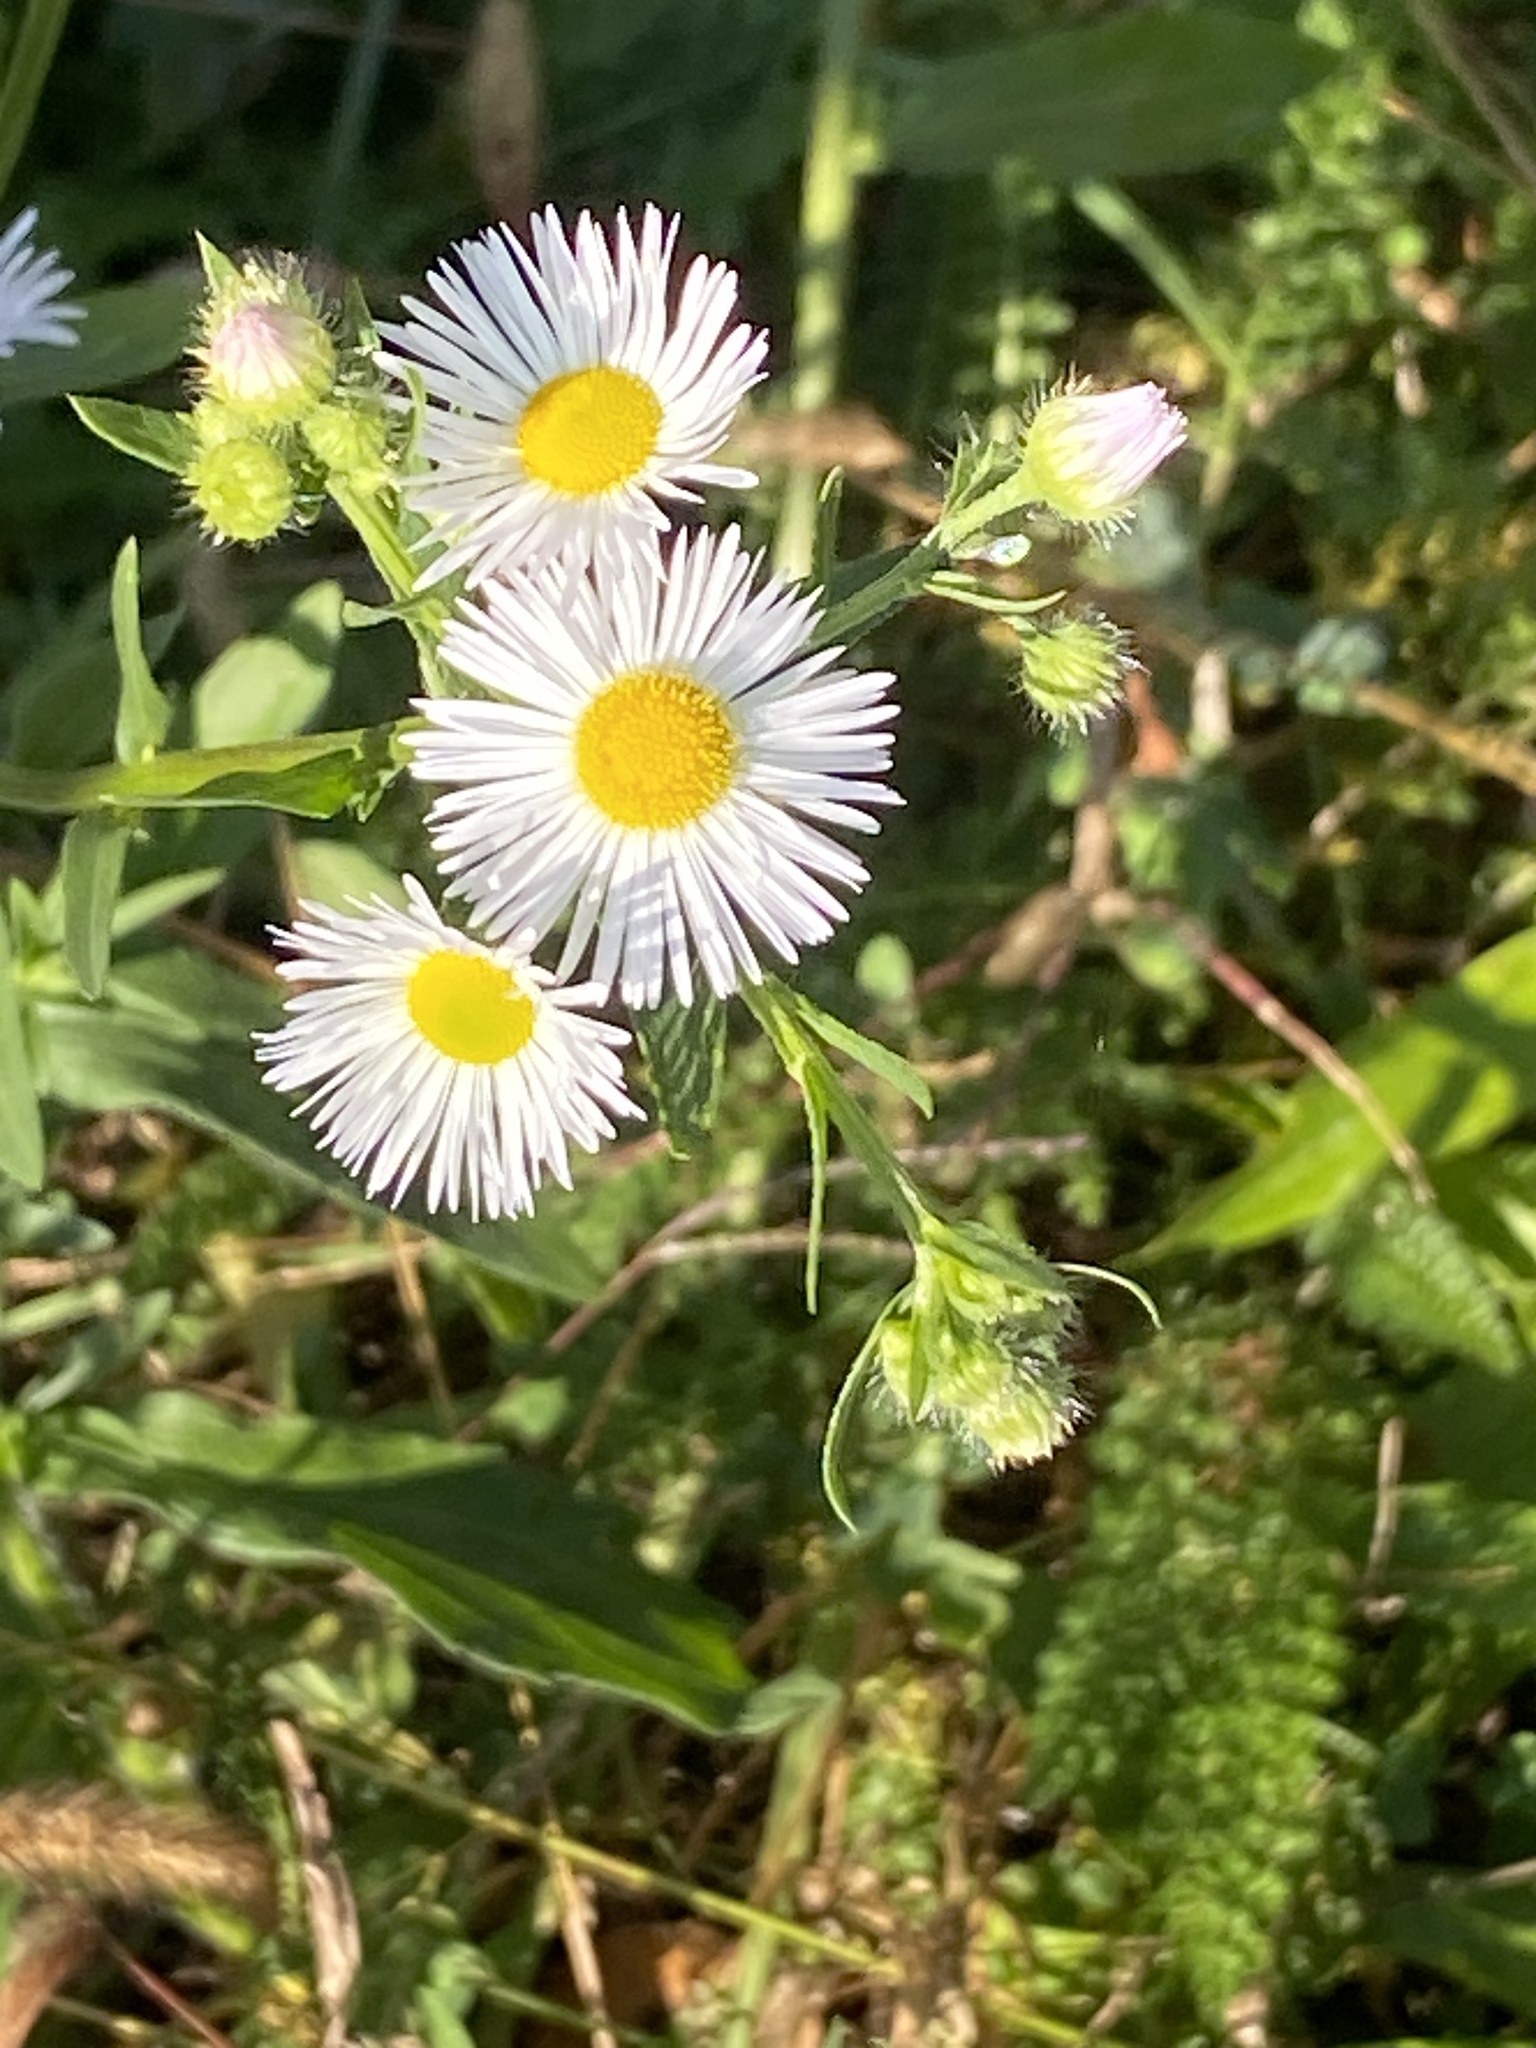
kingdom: Plantae
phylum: Tracheophyta
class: Magnoliopsida
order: Asterales
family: Asteraceae
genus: Erigeron
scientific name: Erigeron annuus
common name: Tall fleabane
